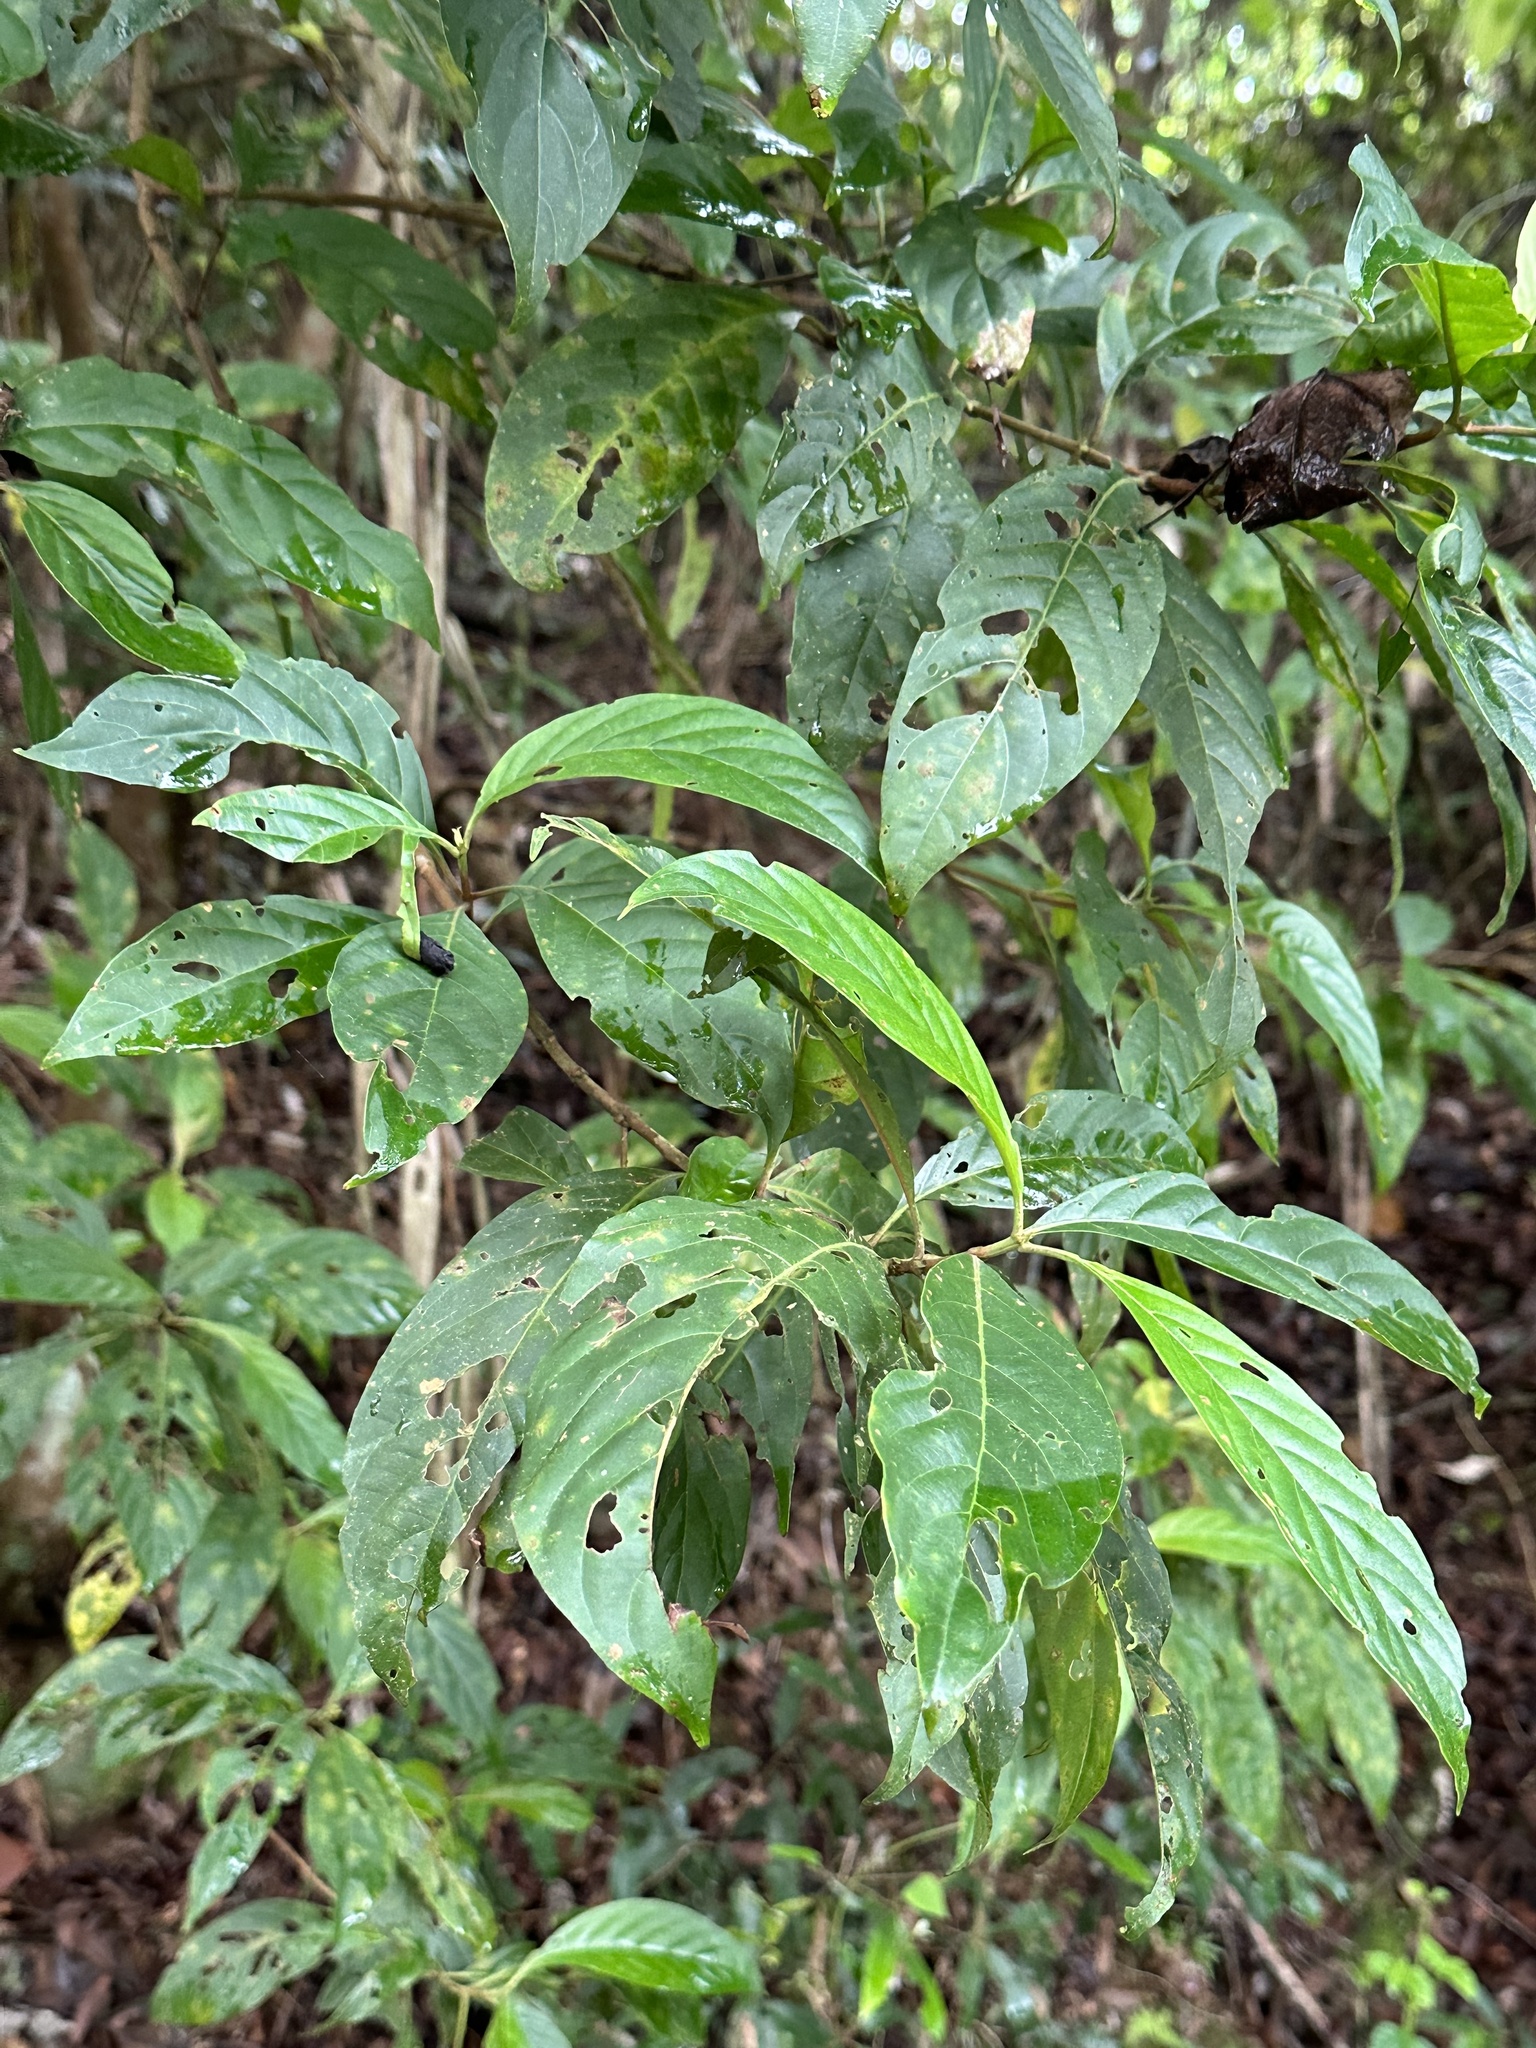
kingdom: Plantae
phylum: Tracheophyta
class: Magnoliopsida
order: Gentianales
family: Rubiaceae
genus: Wendlandia
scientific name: Wendlandia formosana
